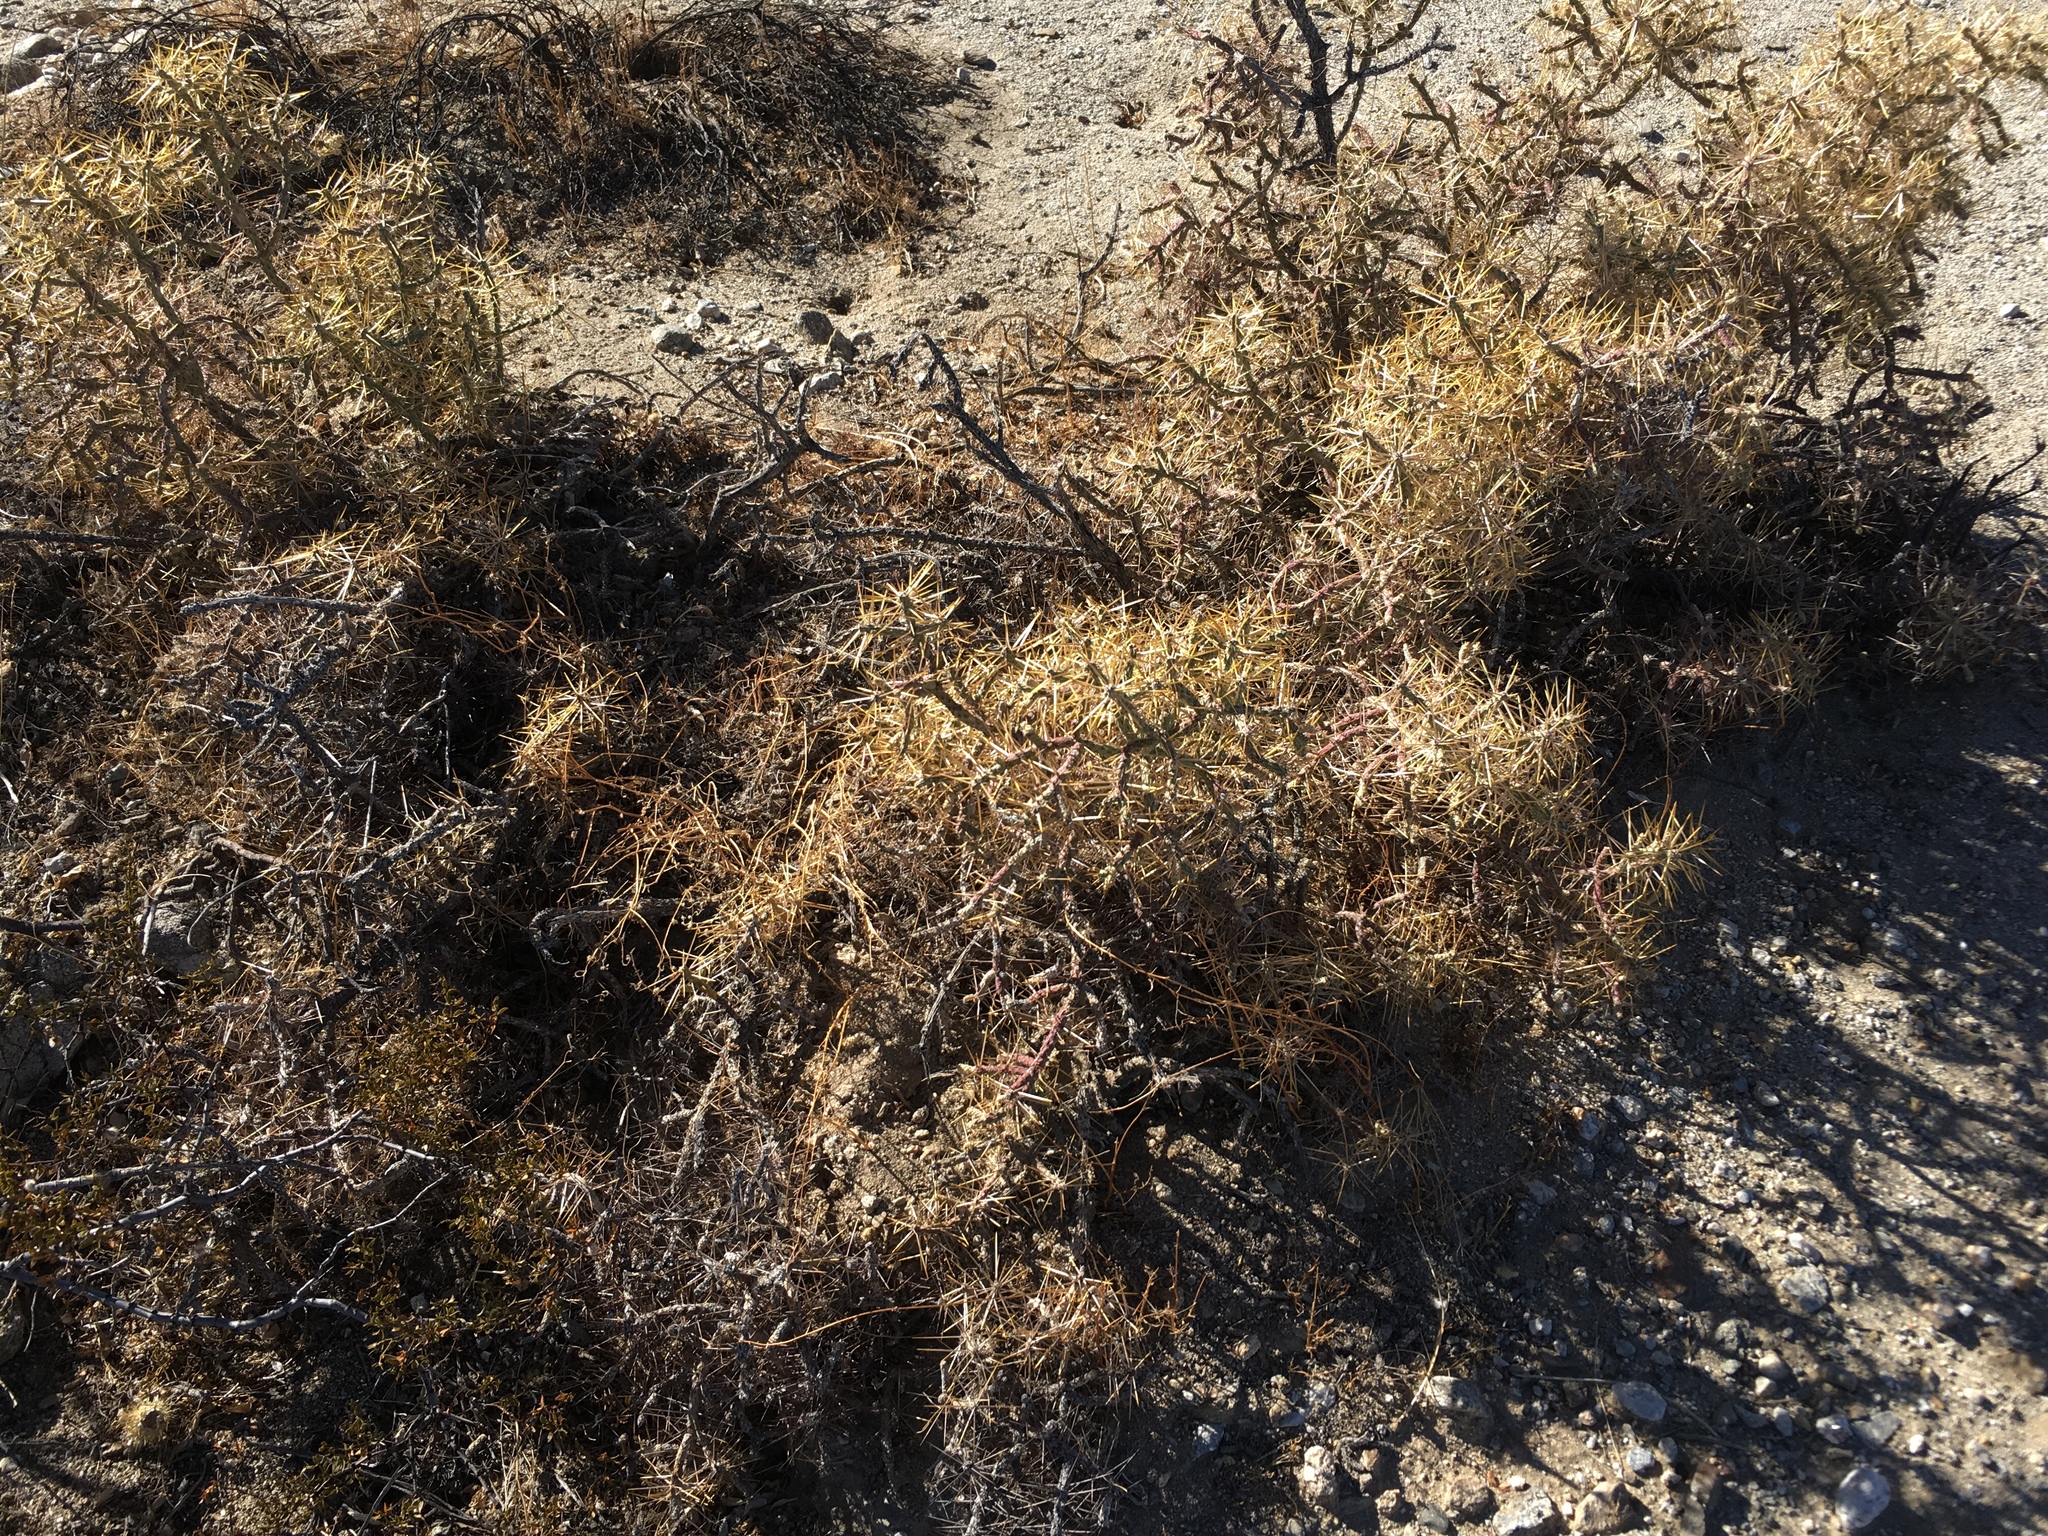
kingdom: Plantae
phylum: Tracheophyta
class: Magnoliopsida
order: Caryophyllales
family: Cactaceae
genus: Cylindropuntia
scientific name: Cylindropuntia ramosissima
